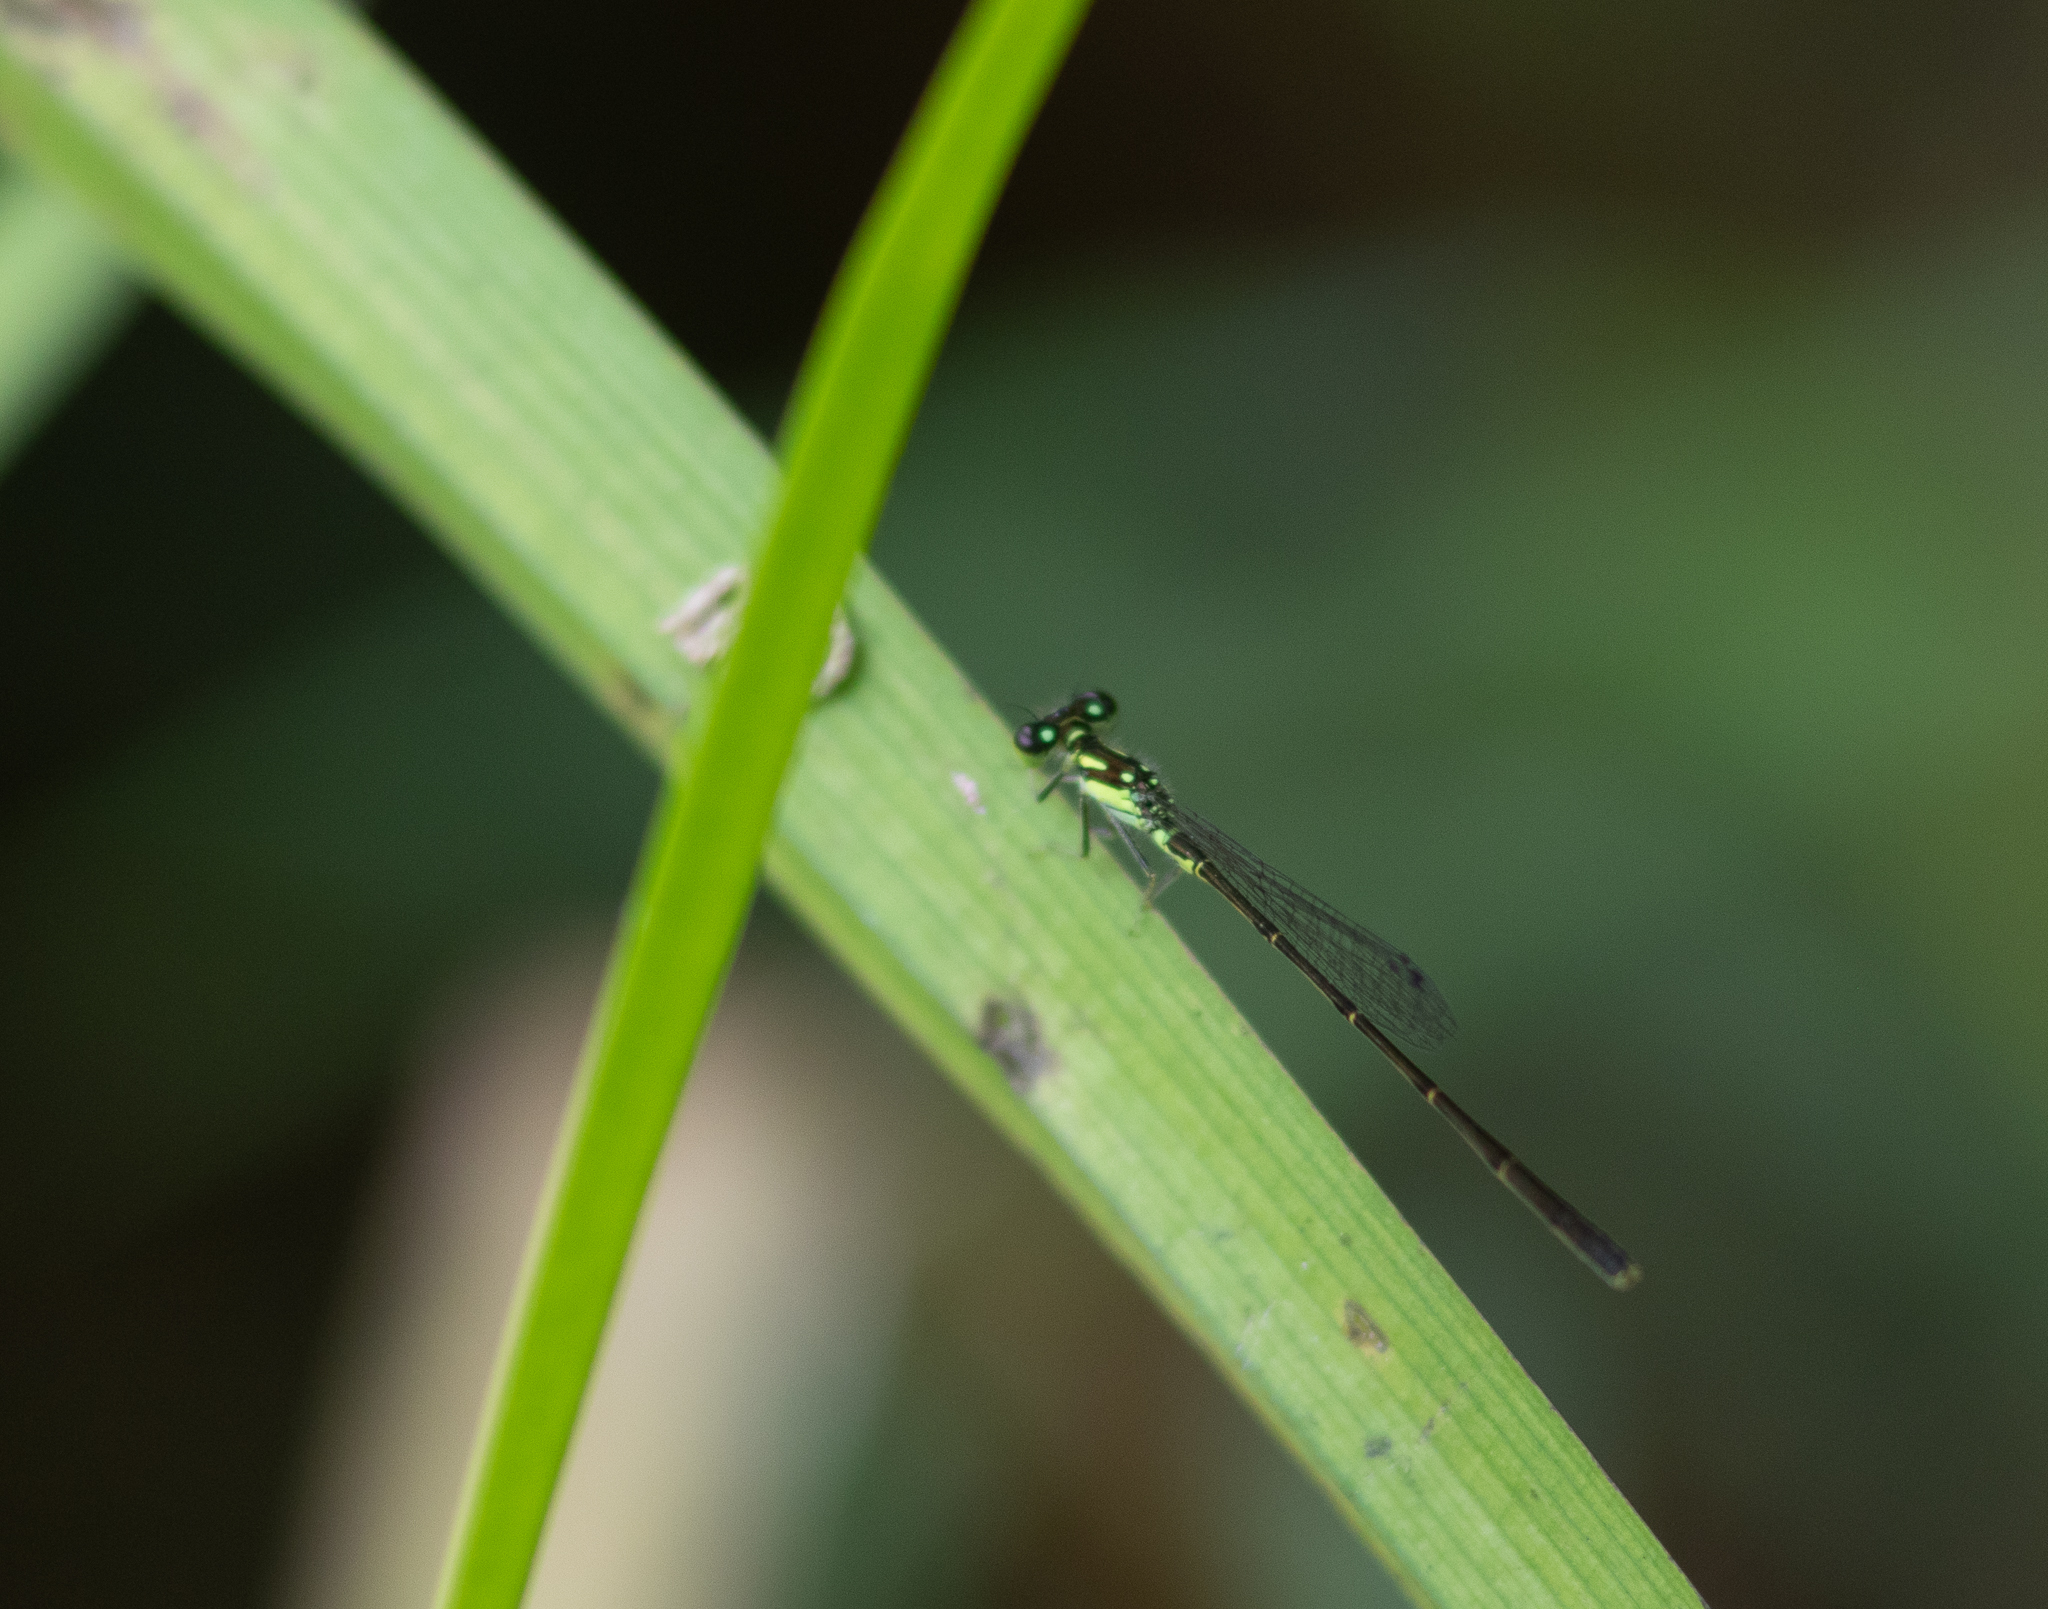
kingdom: Animalia
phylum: Arthropoda
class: Insecta
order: Odonata
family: Coenagrionidae
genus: Ischnura
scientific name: Ischnura posita
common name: Fragile forktail
